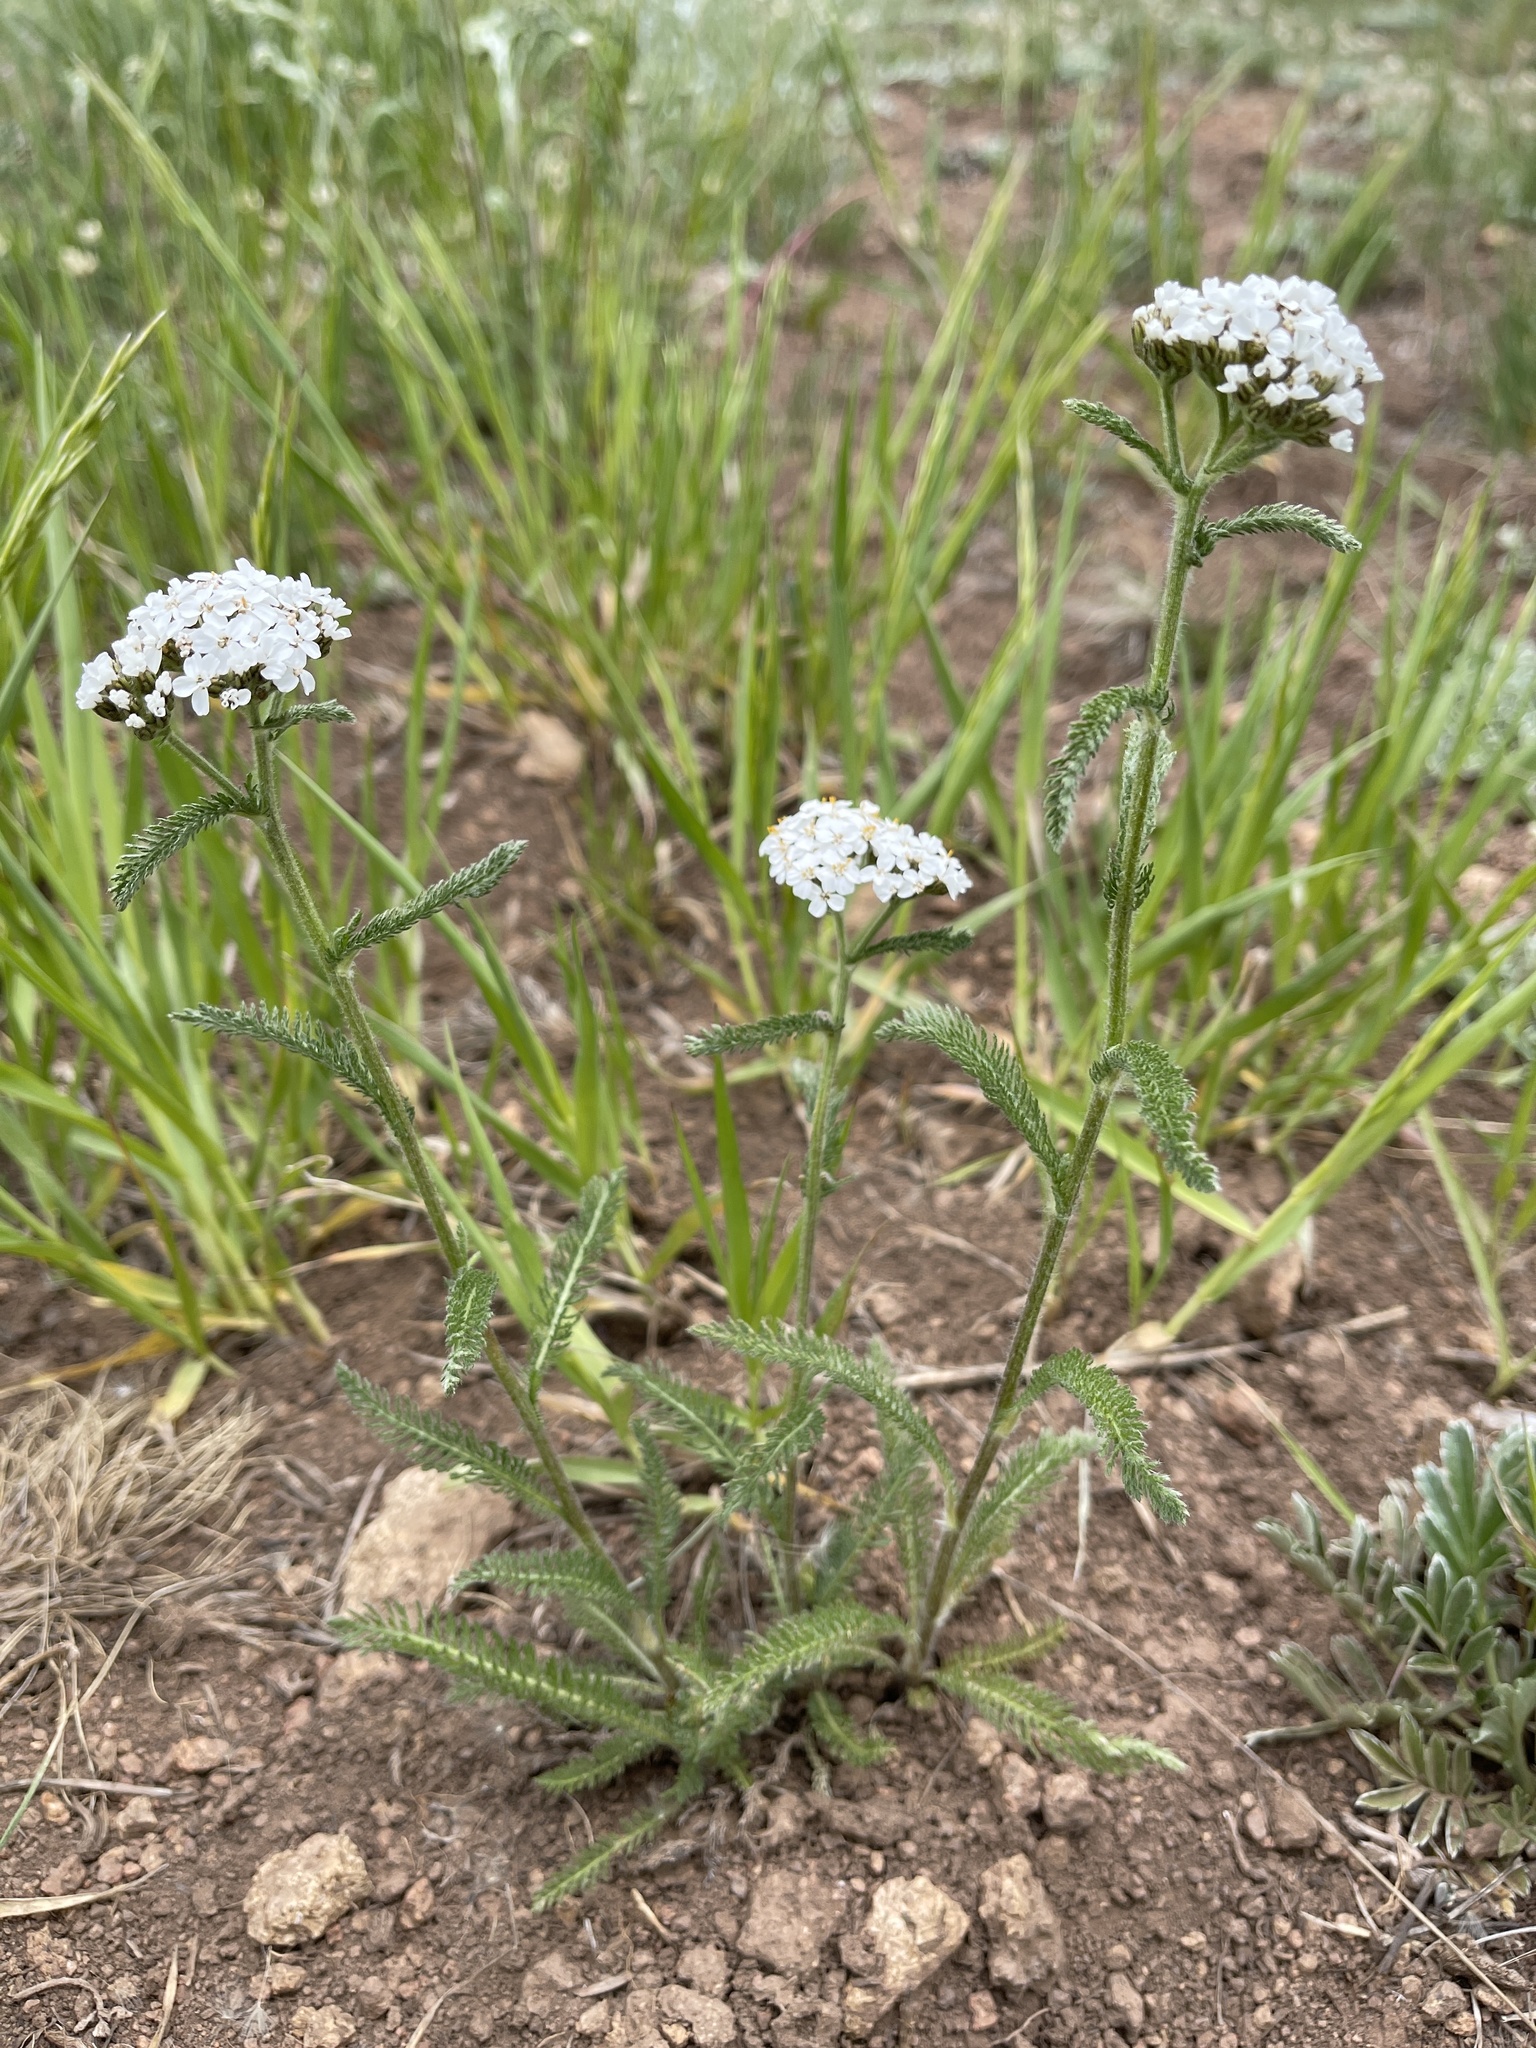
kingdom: Plantae
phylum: Tracheophyta
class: Magnoliopsida
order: Asterales
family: Asteraceae
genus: Achillea
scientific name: Achillea millefolium
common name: Yarrow
